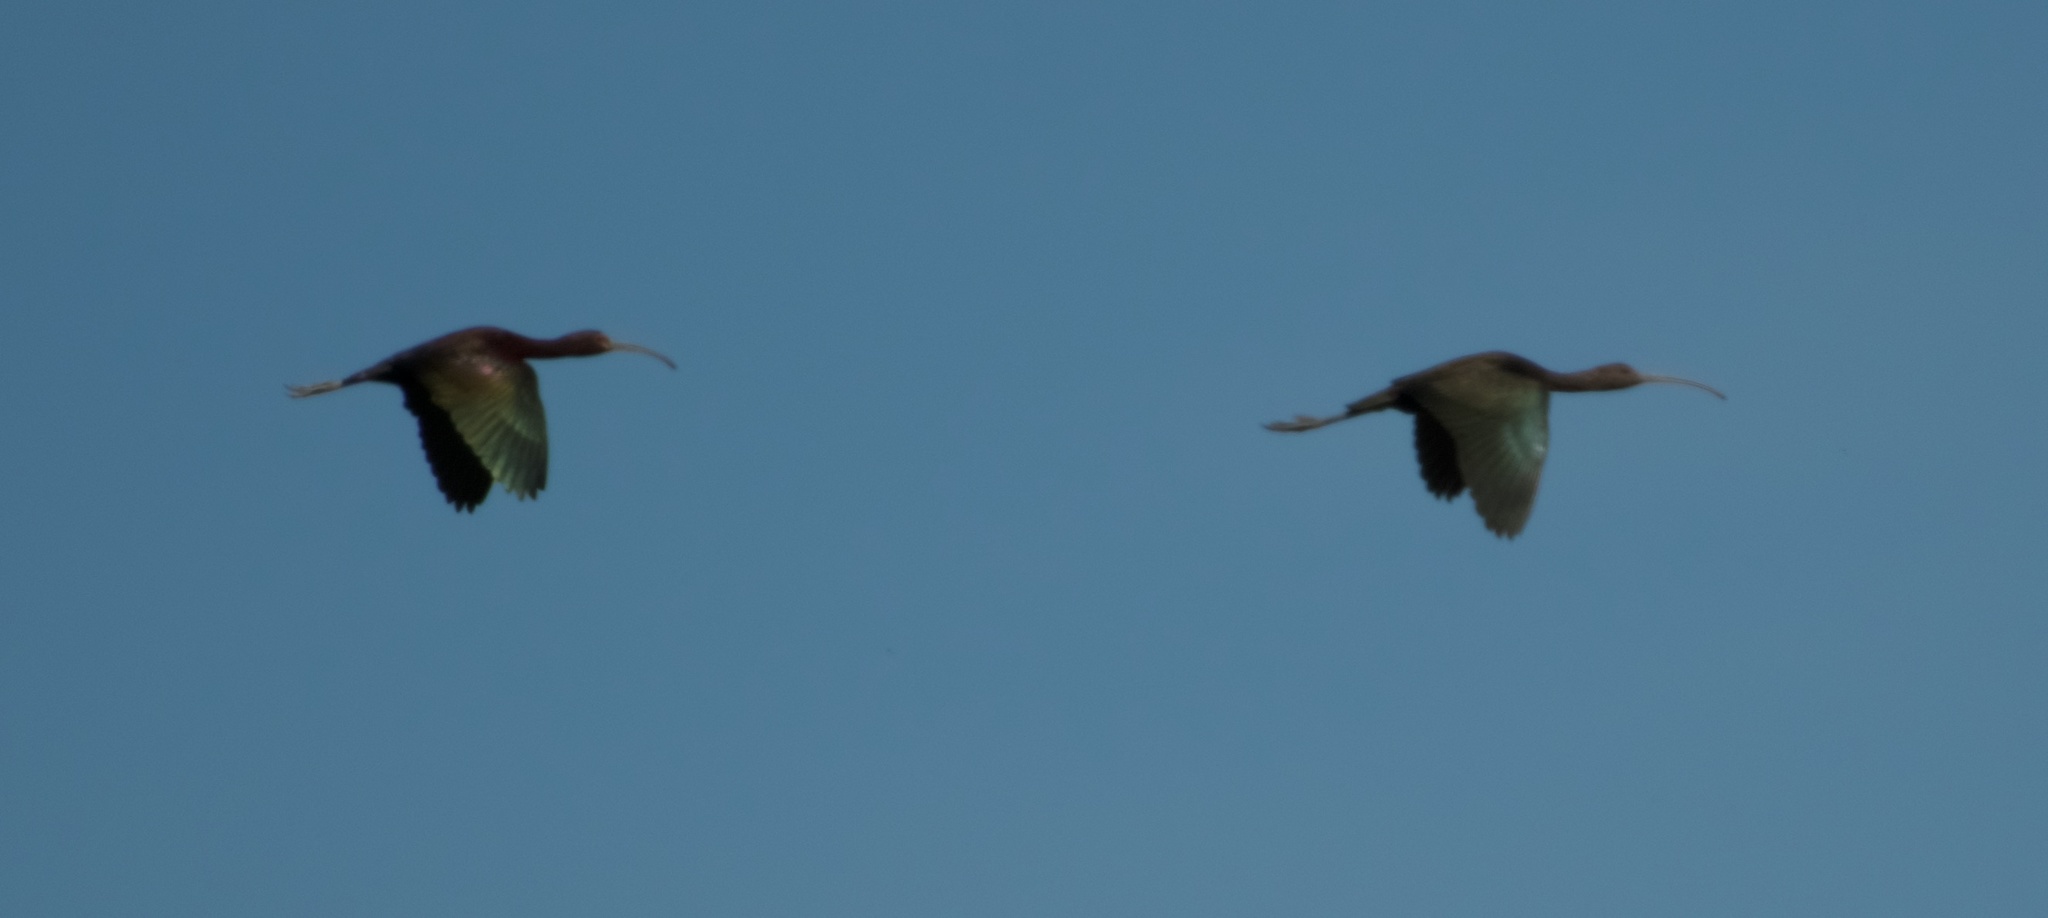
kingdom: Animalia
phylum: Chordata
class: Aves
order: Pelecaniformes
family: Threskiornithidae
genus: Plegadis
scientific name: Plegadis chihi
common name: White-faced ibis
